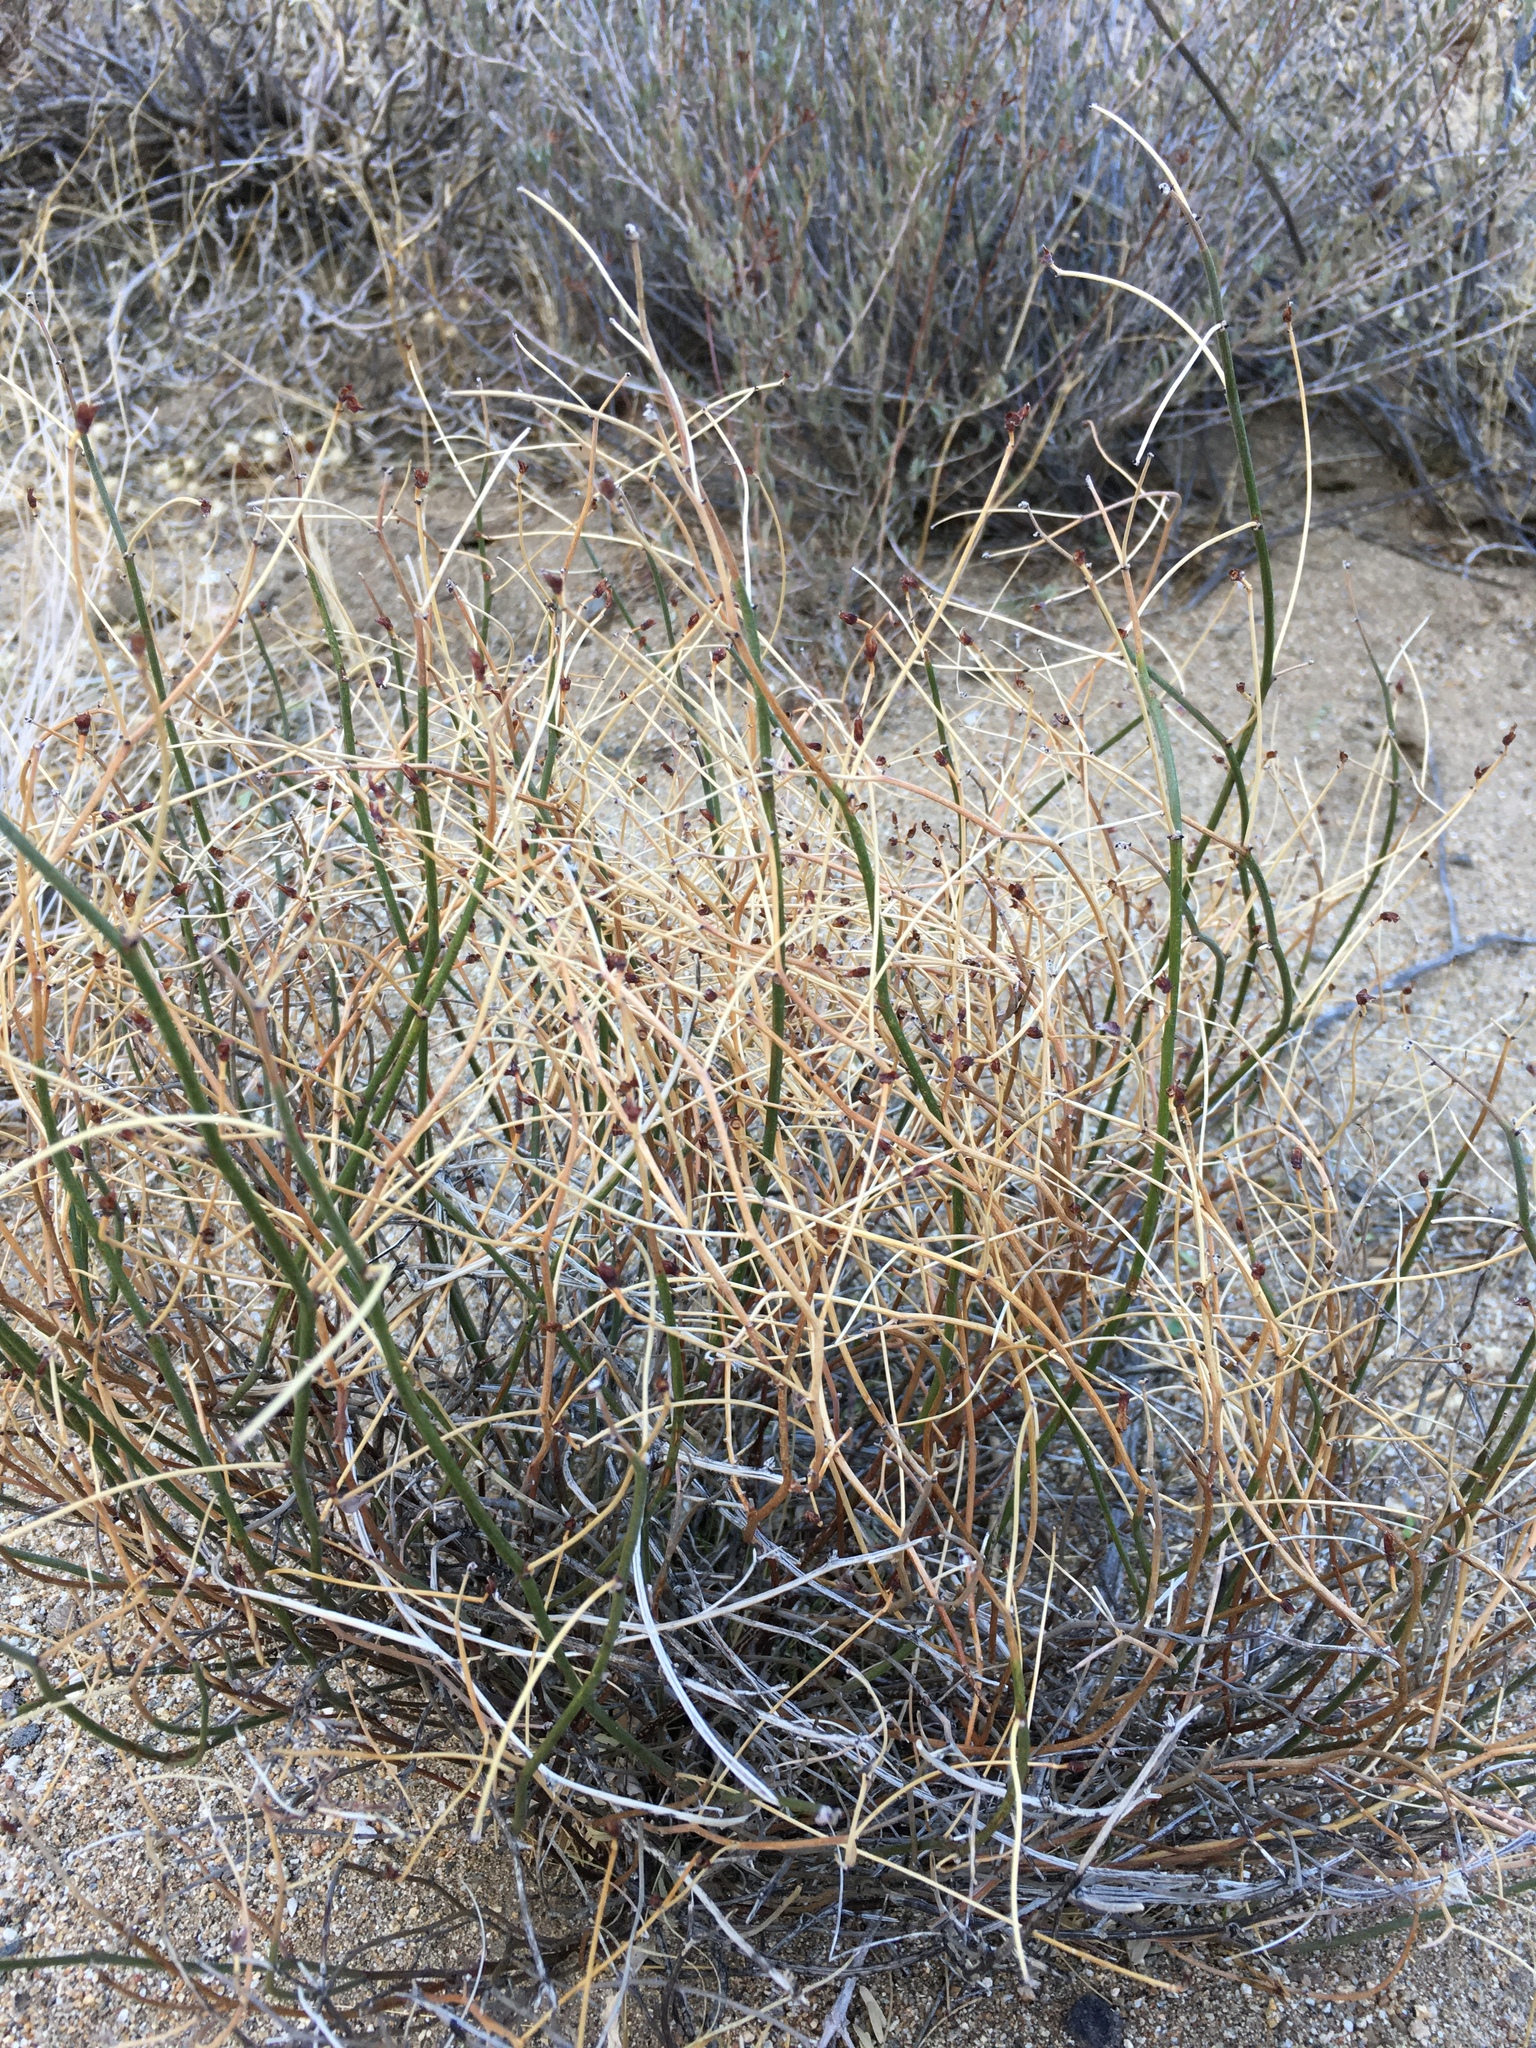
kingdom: Plantae
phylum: Tracheophyta
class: Magnoliopsida
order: Fabales
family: Fabaceae
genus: Acmispon
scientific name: Acmispon rigidus
